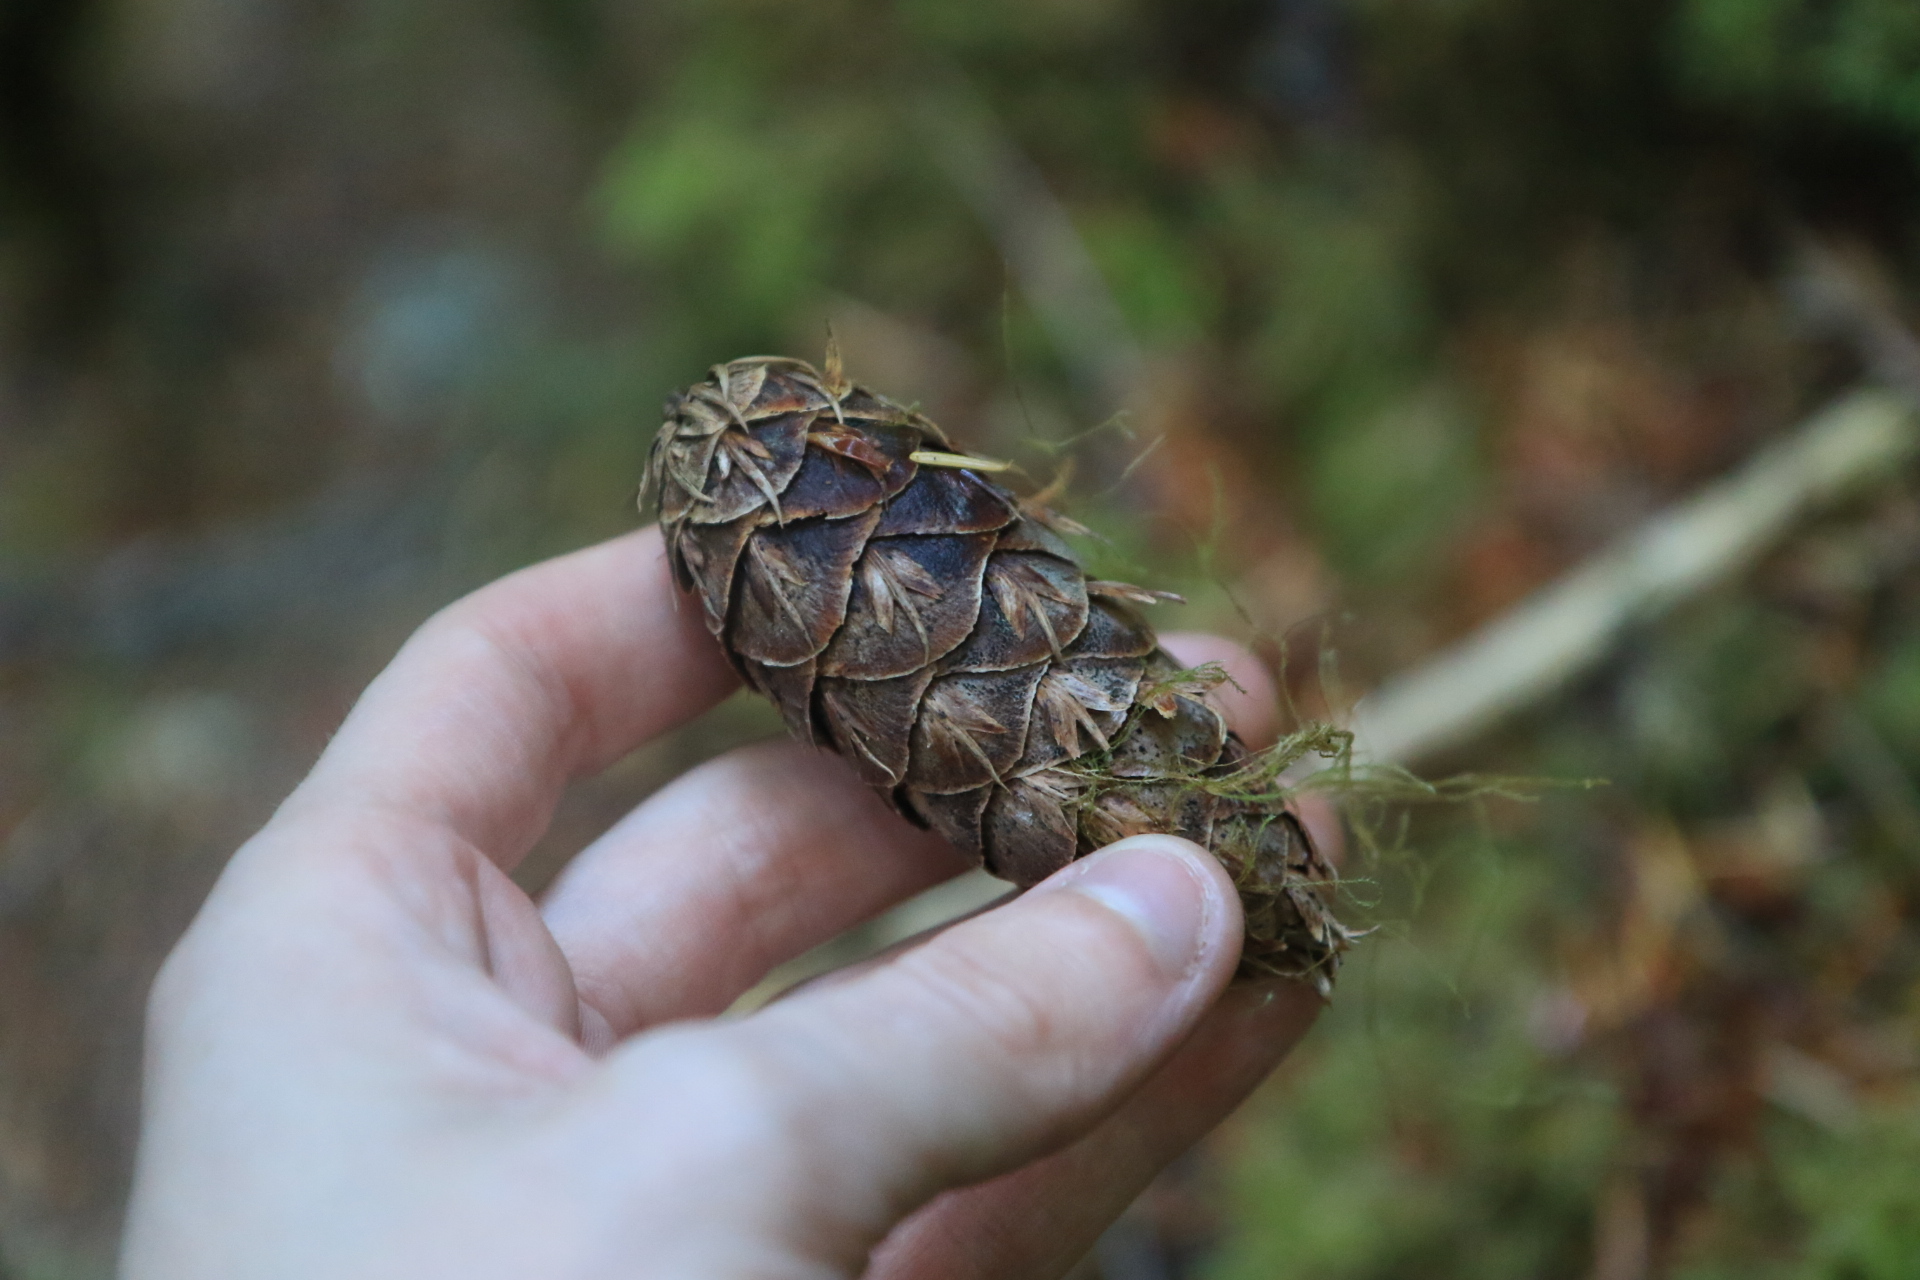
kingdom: Plantae
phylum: Tracheophyta
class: Pinopsida
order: Pinales
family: Pinaceae
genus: Pseudotsuga
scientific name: Pseudotsuga menziesii
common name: Douglas fir
